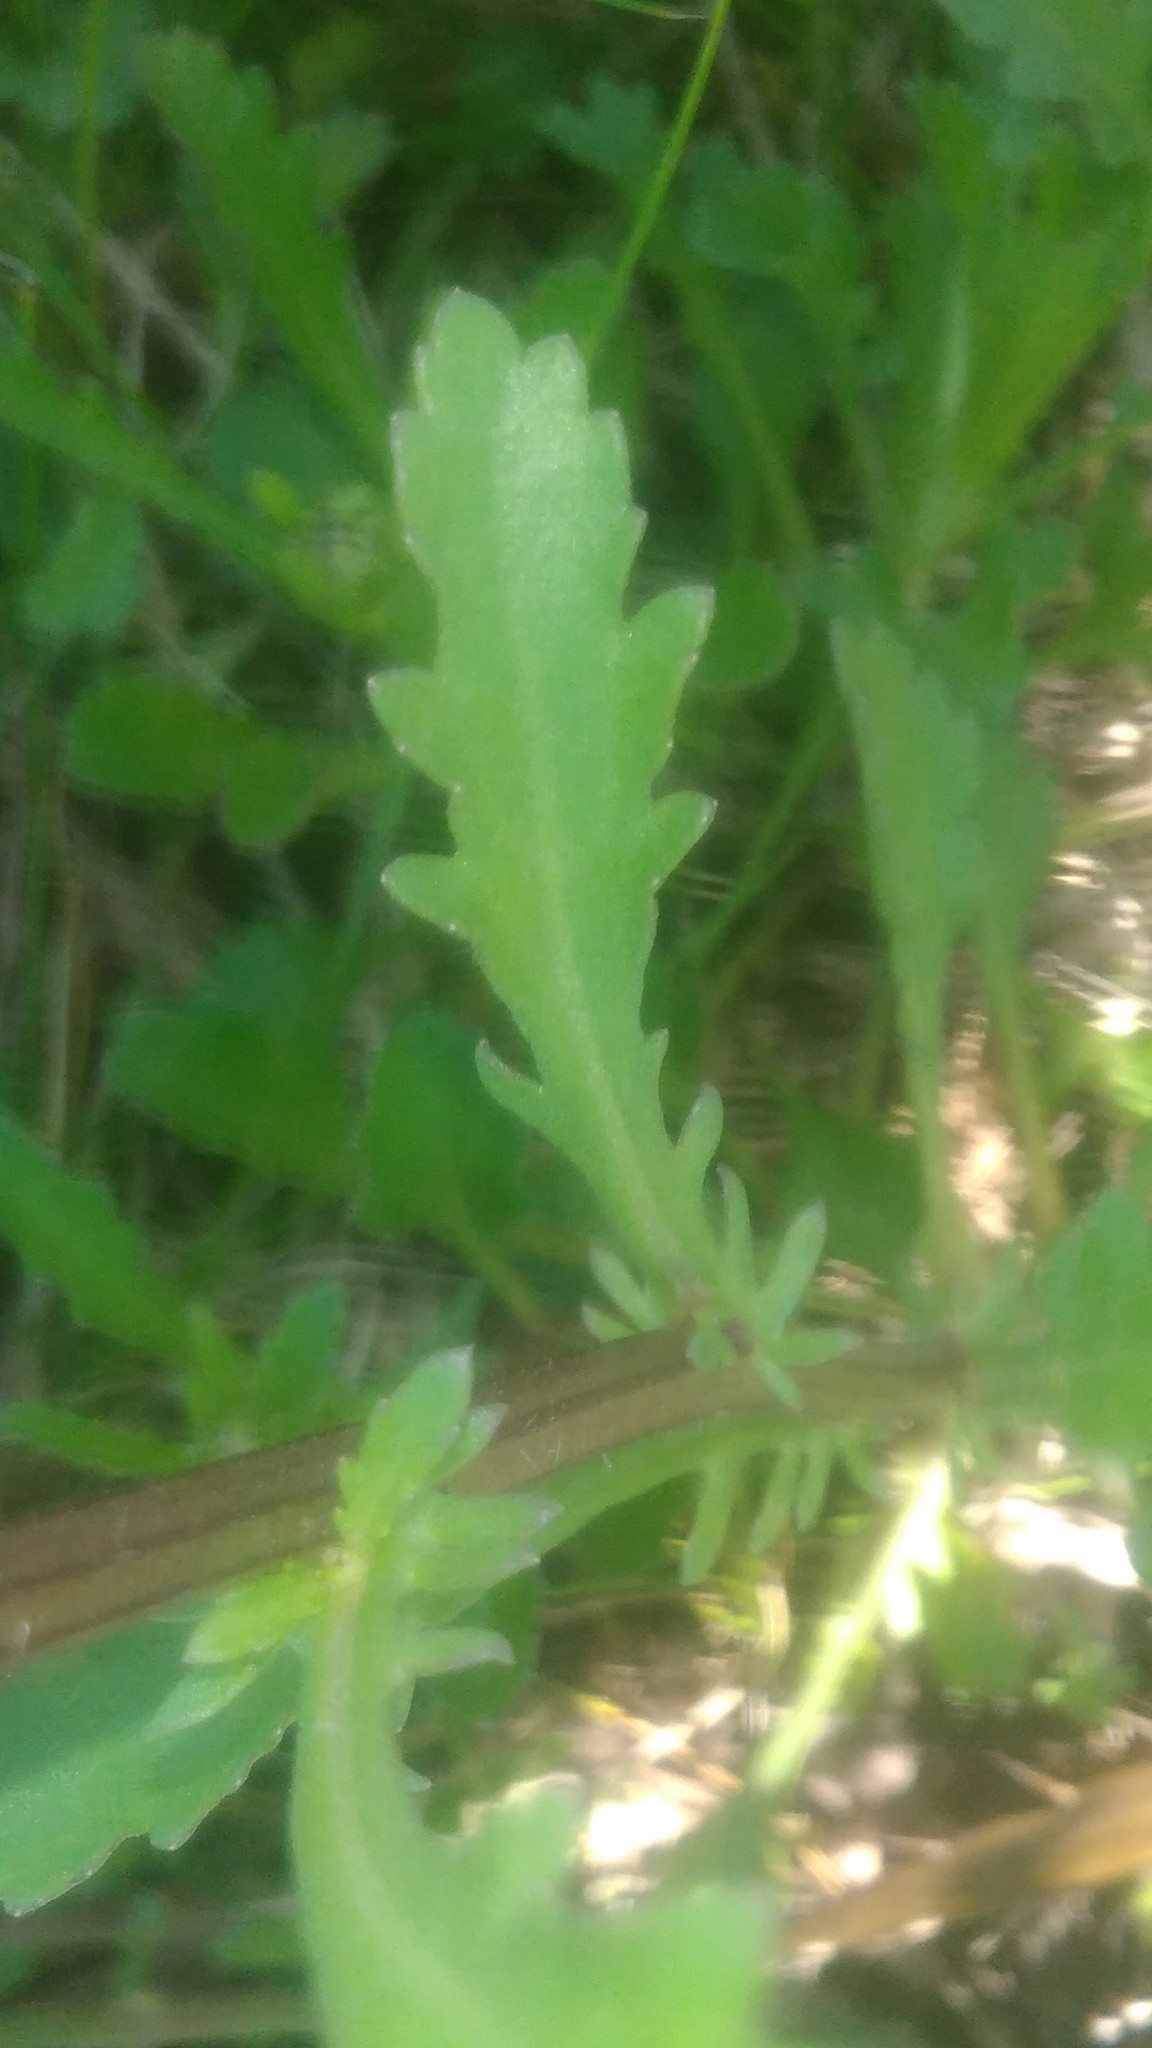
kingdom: Plantae
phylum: Tracheophyta
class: Magnoliopsida
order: Asterales
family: Asteraceae
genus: Leucanthemum
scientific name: Leucanthemum vulgare
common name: Oxeye daisy
